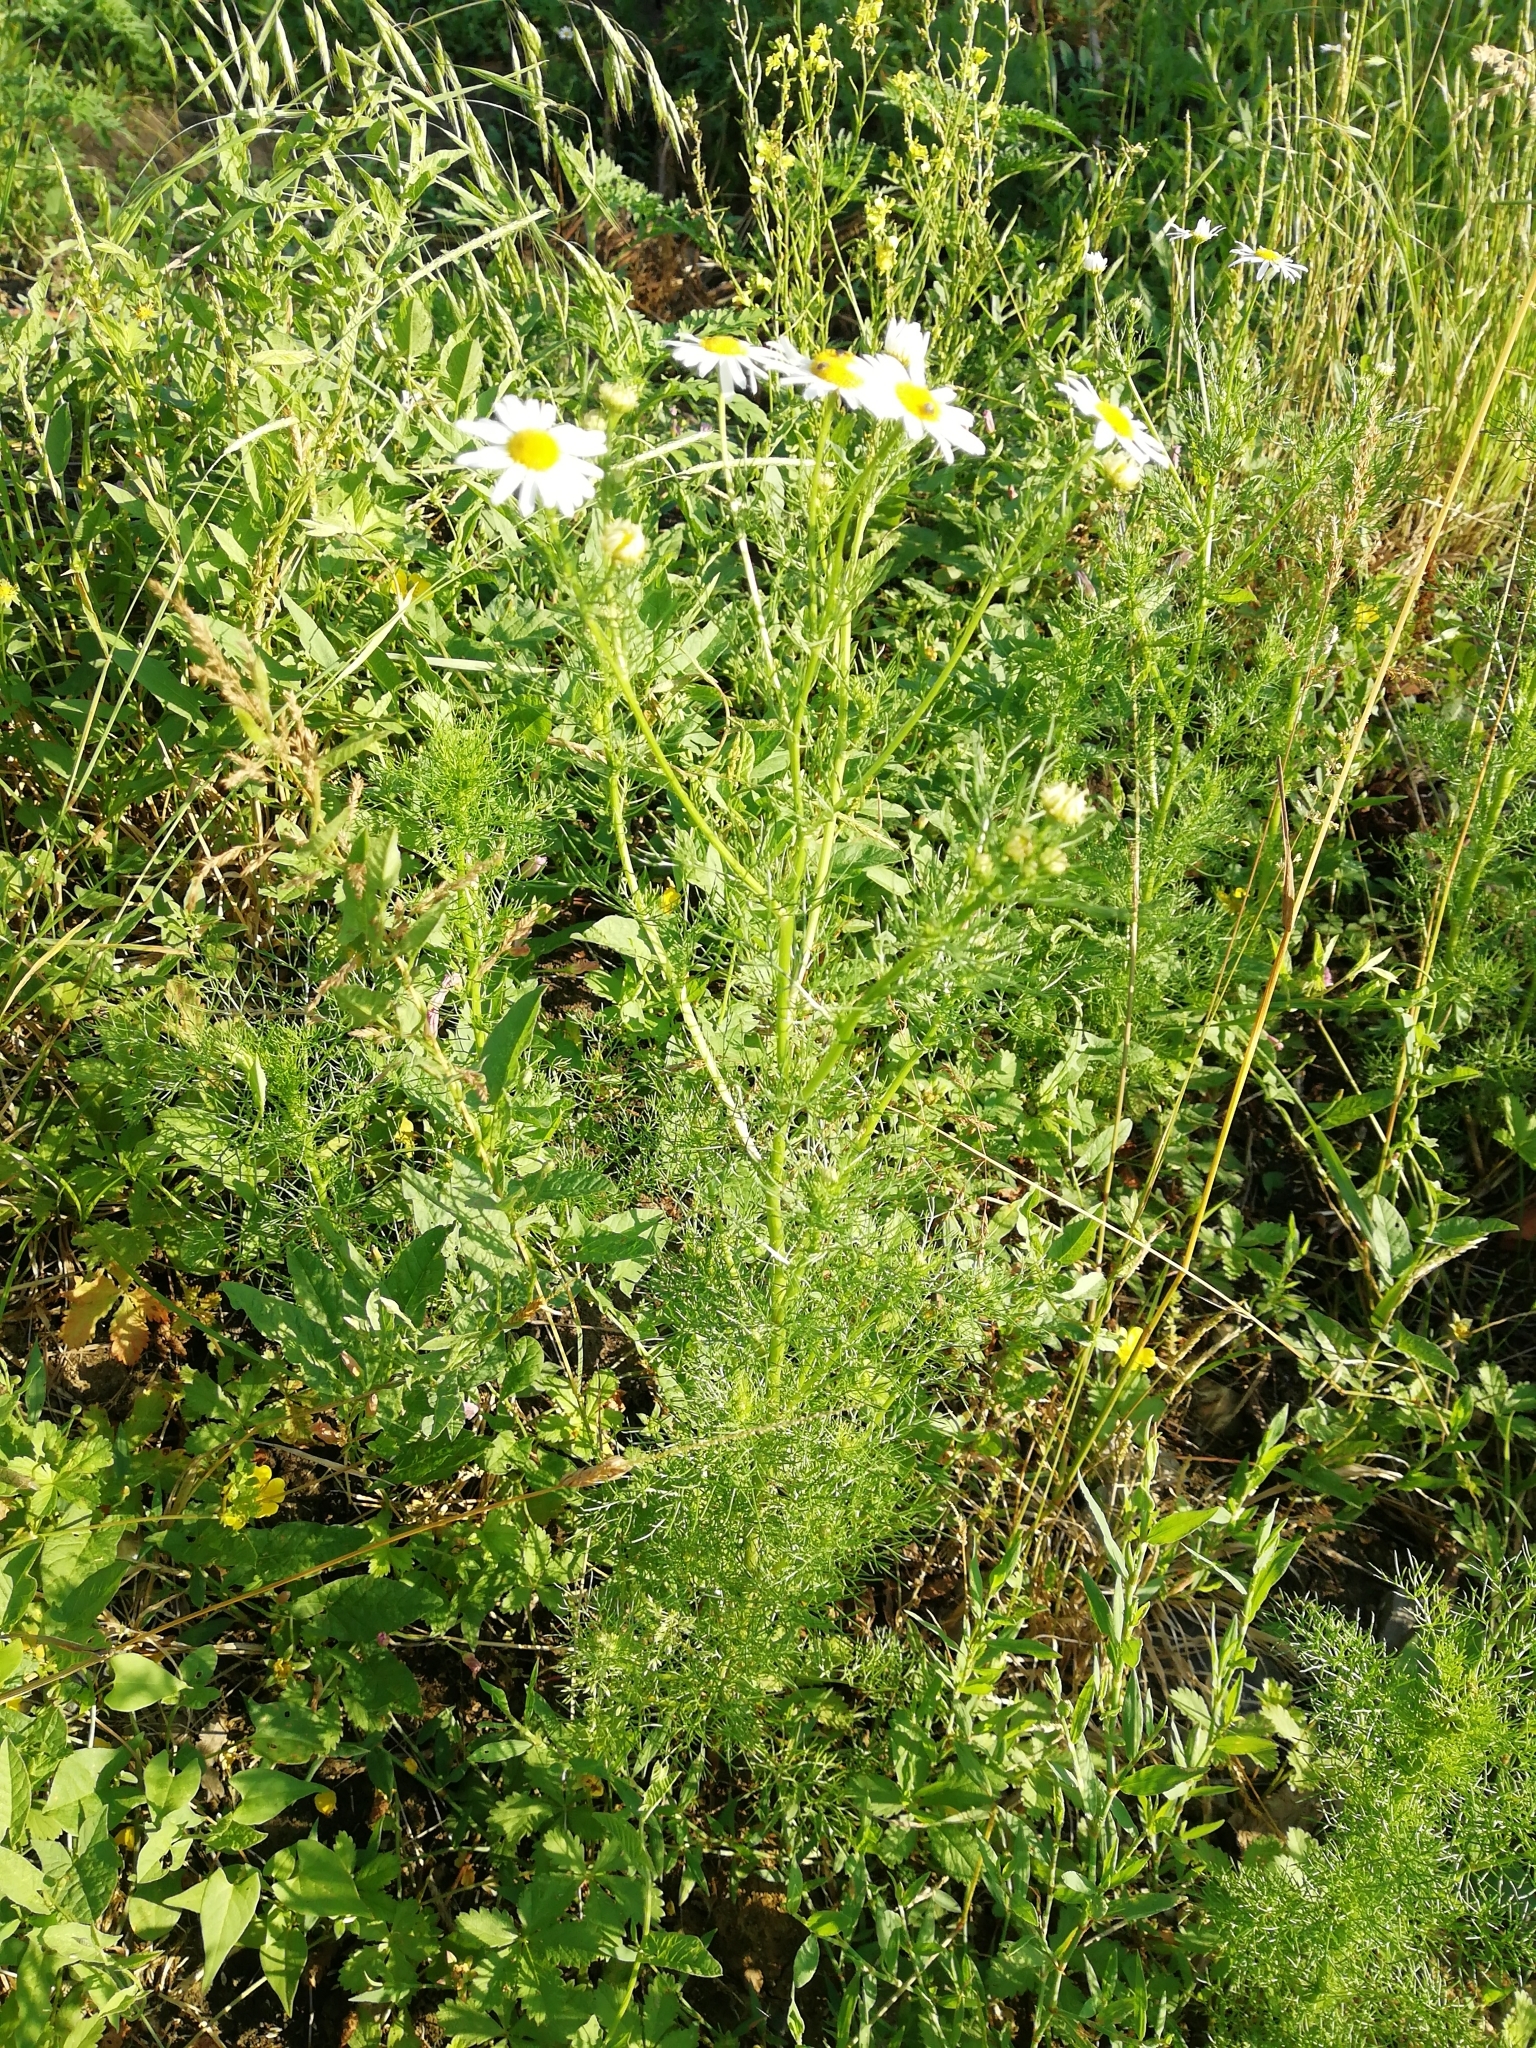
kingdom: Plantae
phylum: Tracheophyta
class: Magnoliopsida
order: Asterales
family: Asteraceae
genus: Tripleurospermum
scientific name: Tripleurospermum inodorum
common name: Scentless mayweed
